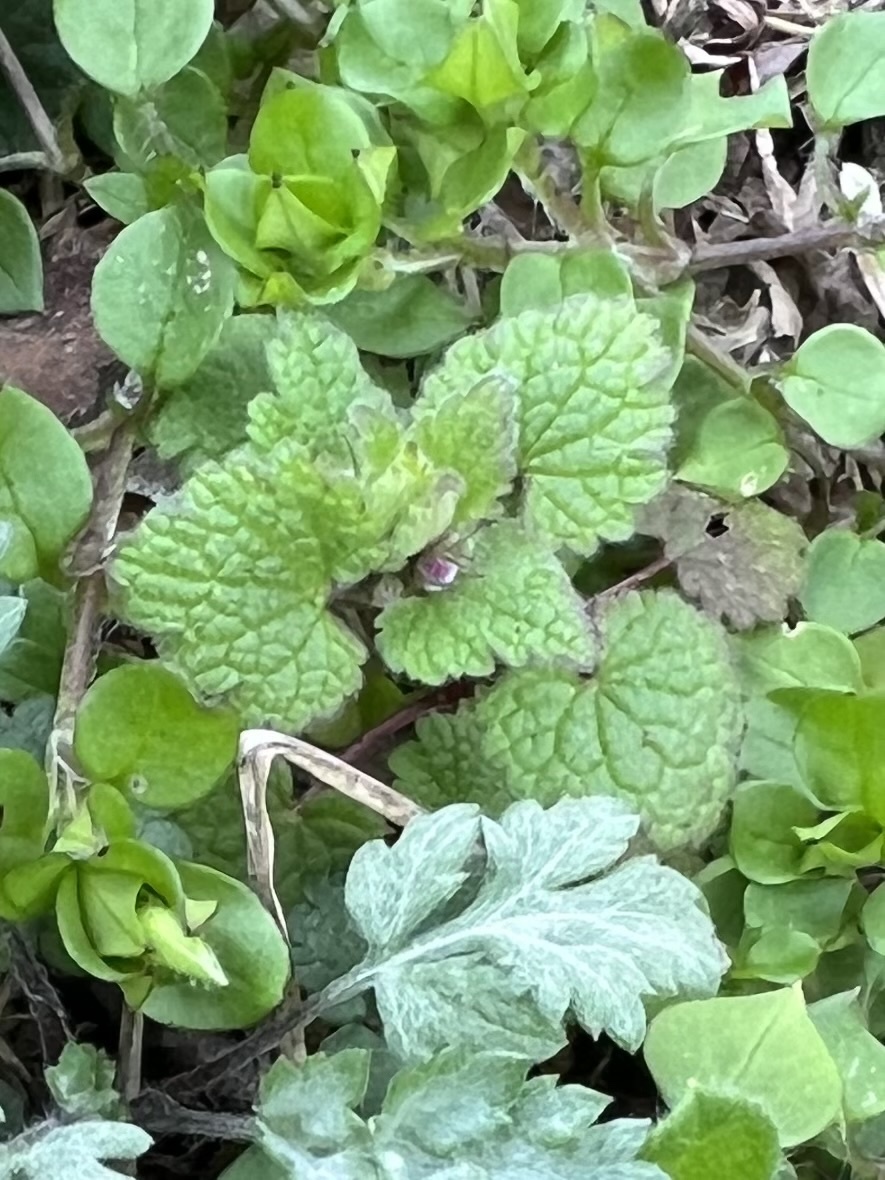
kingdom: Plantae
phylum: Tracheophyta
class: Magnoliopsida
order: Lamiales
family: Lamiaceae
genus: Lamium
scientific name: Lamium purpureum
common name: Red dead-nettle
